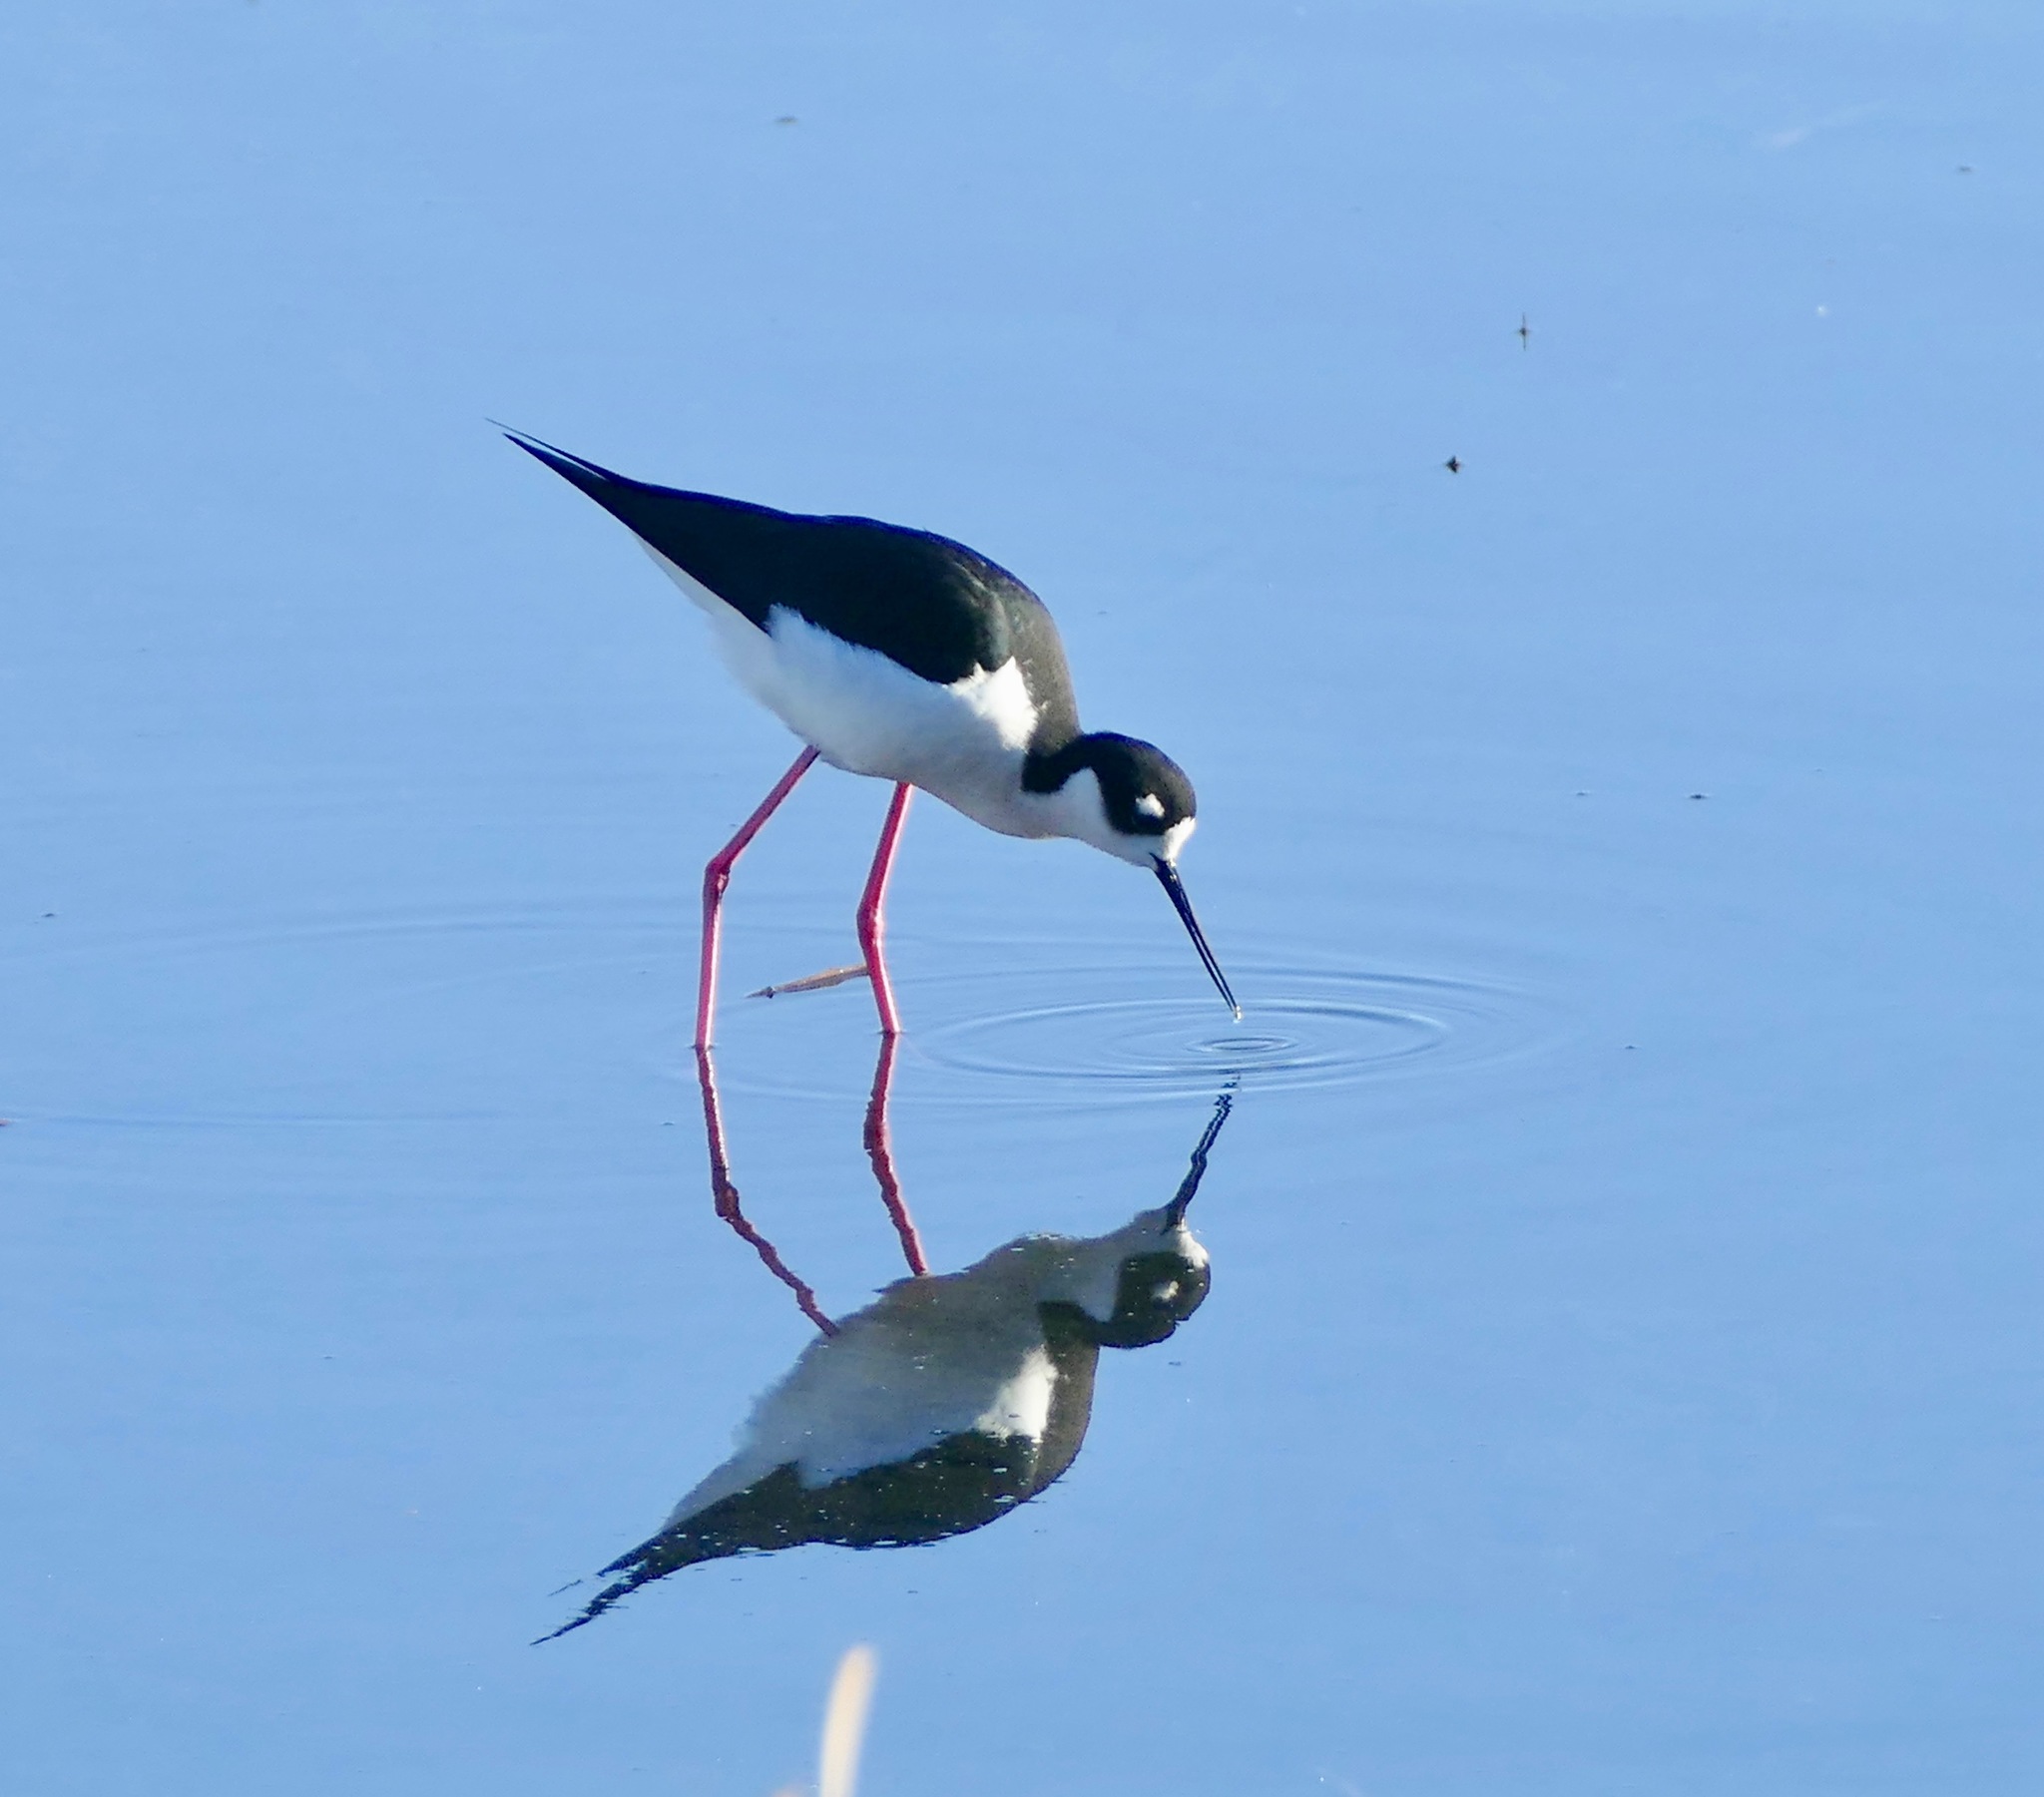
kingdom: Animalia
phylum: Chordata
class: Aves
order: Charadriiformes
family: Recurvirostridae
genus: Himantopus
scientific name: Himantopus mexicanus
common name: Black-necked stilt
